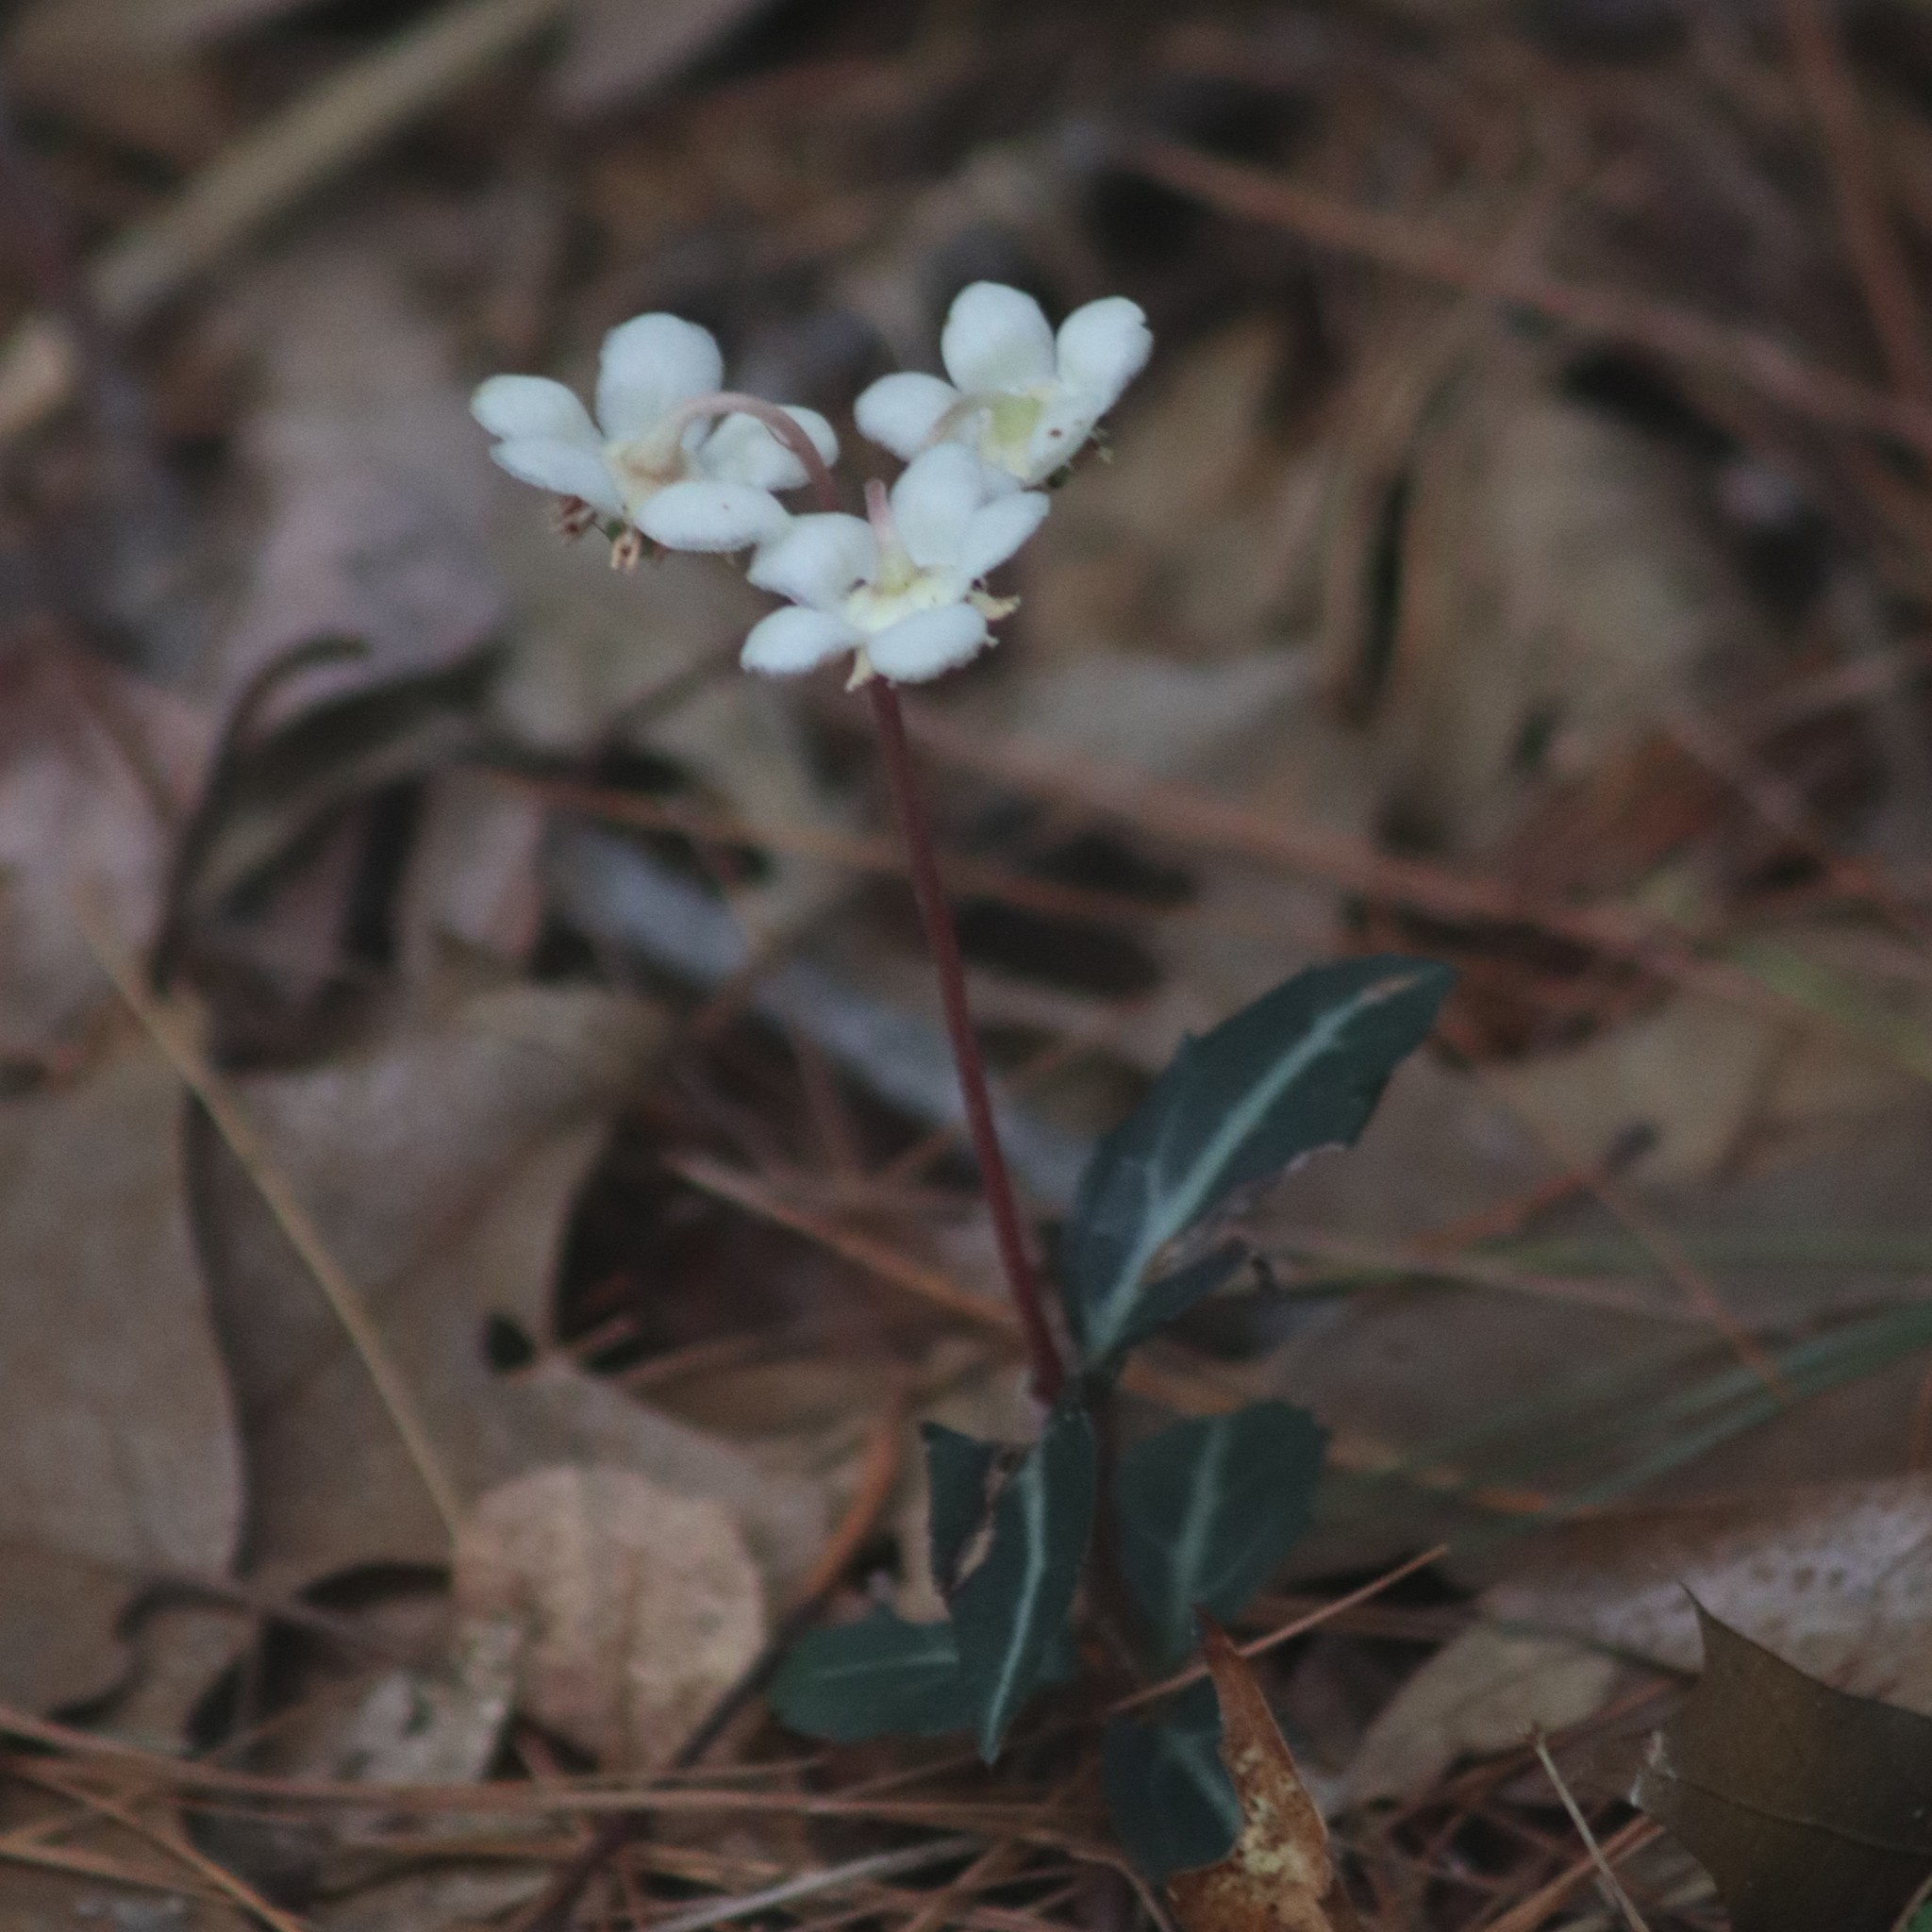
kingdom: Plantae
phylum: Tracheophyta
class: Magnoliopsida
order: Ericales
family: Ericaceae
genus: Chimaphila
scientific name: Chimaphila maculata
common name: Spotted pipsissewa
